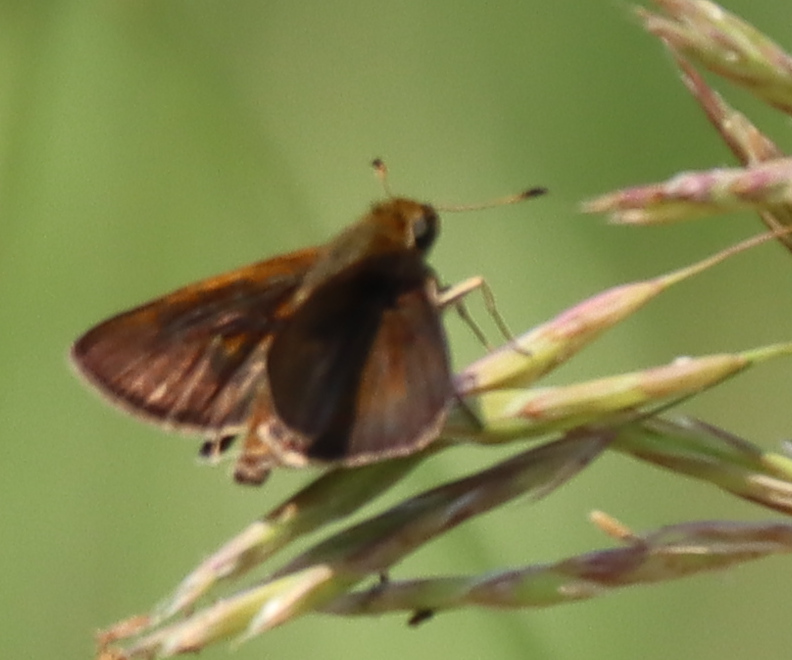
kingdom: Animalia
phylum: Arthropoda
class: Insecta
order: Lepidoptera
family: Hesperiidae
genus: Euphyes
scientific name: Euphyes vestris
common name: Dun skipper
